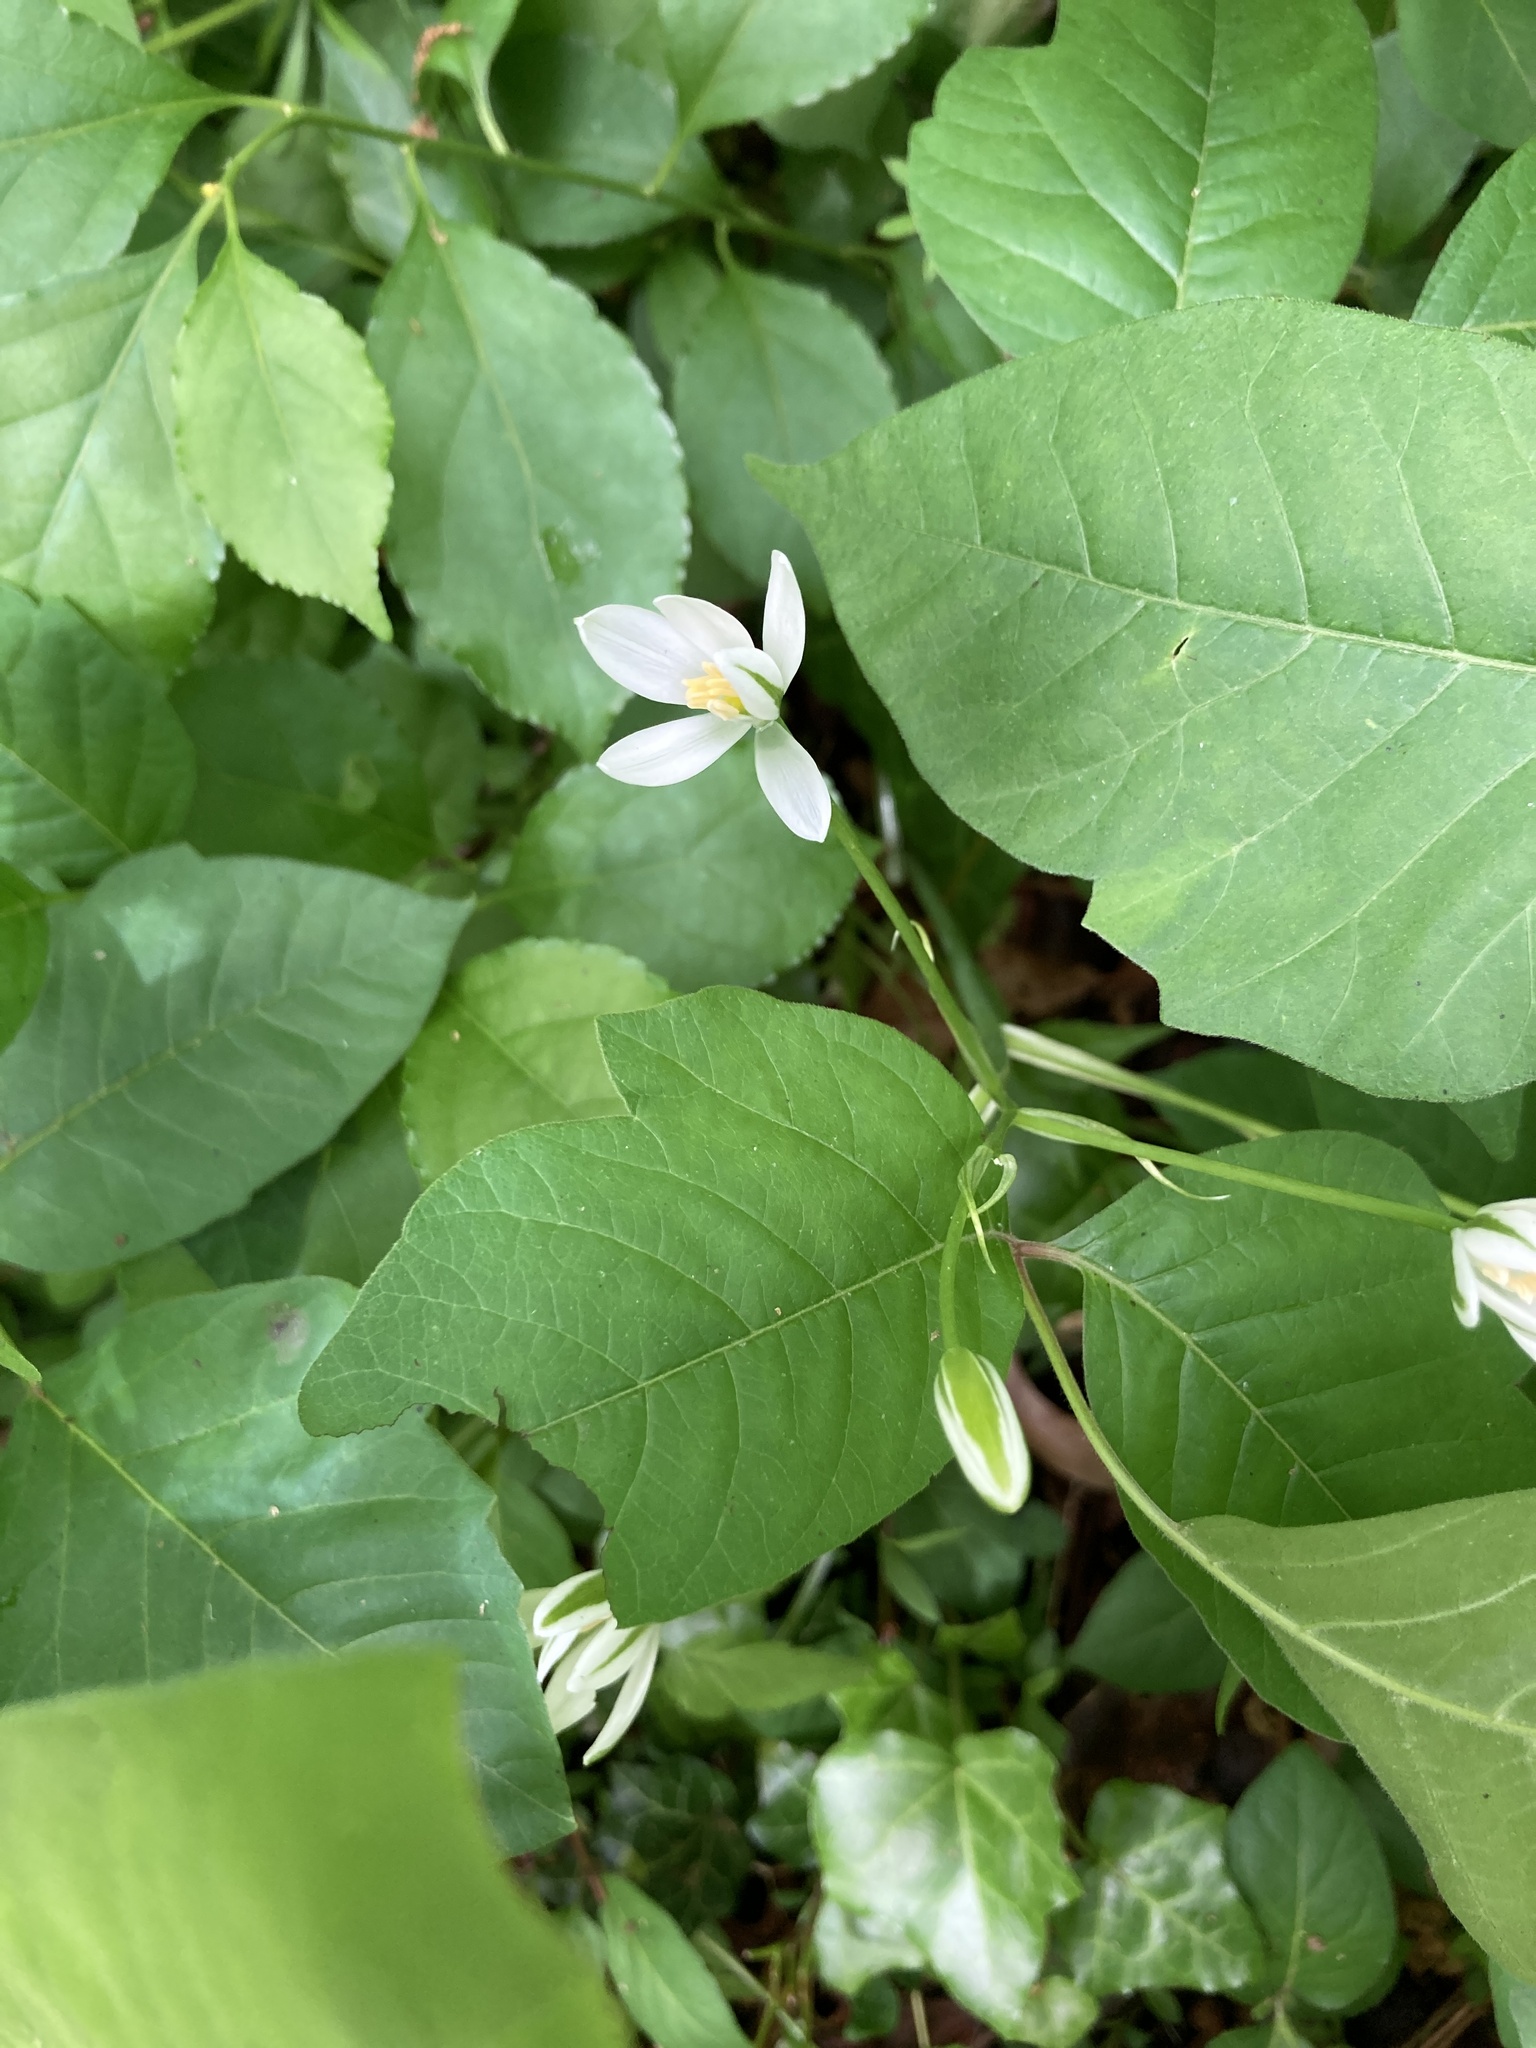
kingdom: Plantae
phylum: Tracheophyta
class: Liliopsida
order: Asparagales
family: Asparagaceae
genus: Ornithogalum
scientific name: Ornithogalum umbellatum
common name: Garden star-of-bethlehem
